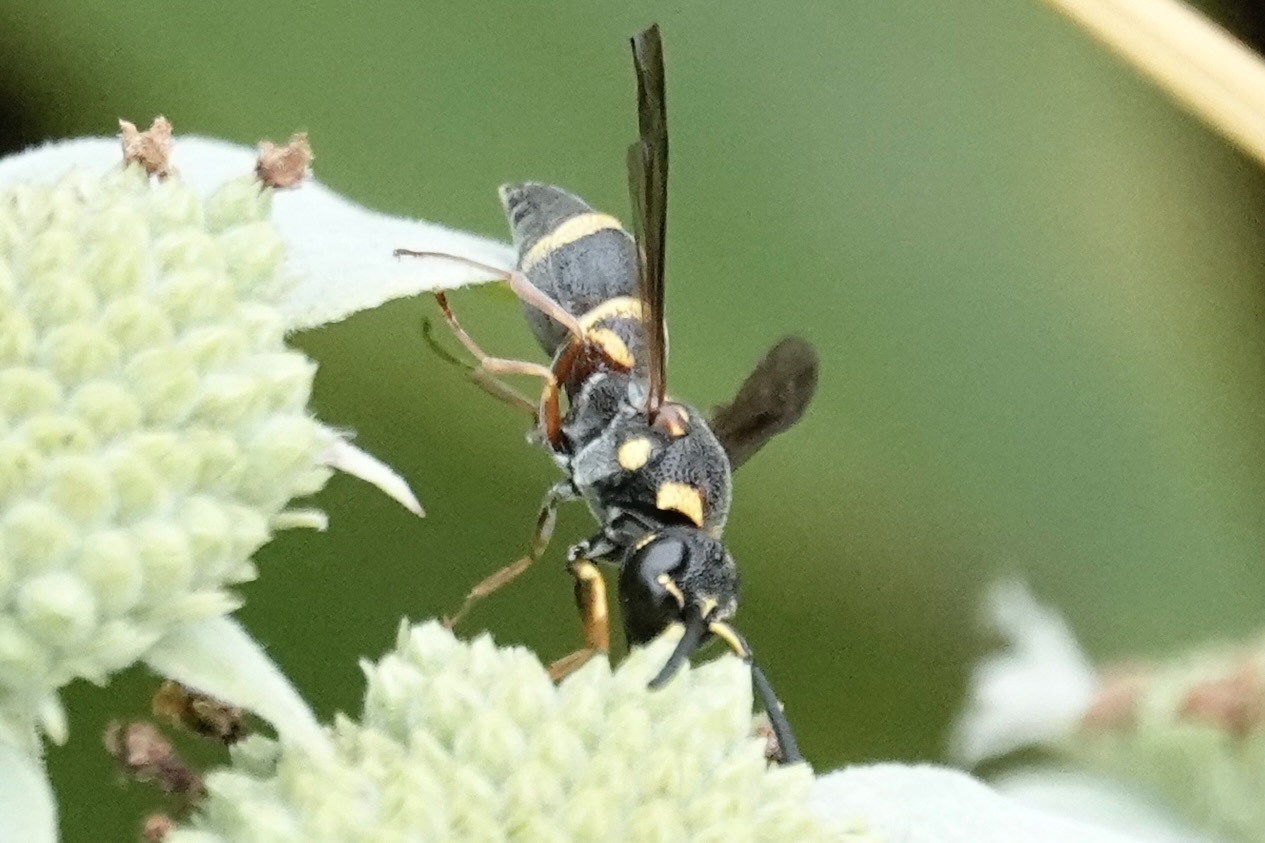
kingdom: Animalia
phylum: Arthropoda
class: Insecta
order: Hymenoptera
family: Eumenidae
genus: Parancistrocerus
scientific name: Parancistrocerus fulvipes
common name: Potter wasp
